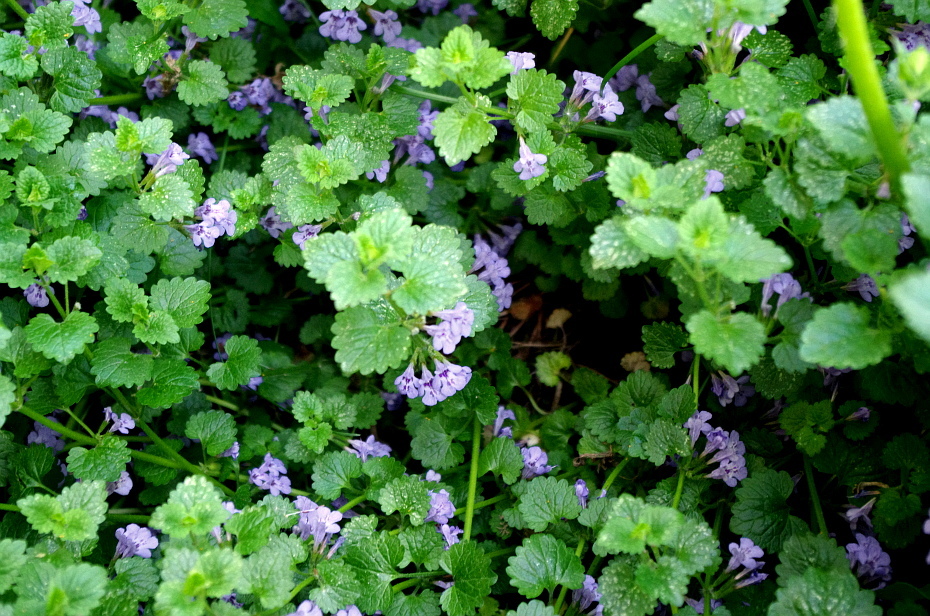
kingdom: Plantae
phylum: Tracheophyta
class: Magnoliopsida
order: Lamiales
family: Lamiaceae
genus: Glechoma
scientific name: Glechoma hederacea
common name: Ground ivy
